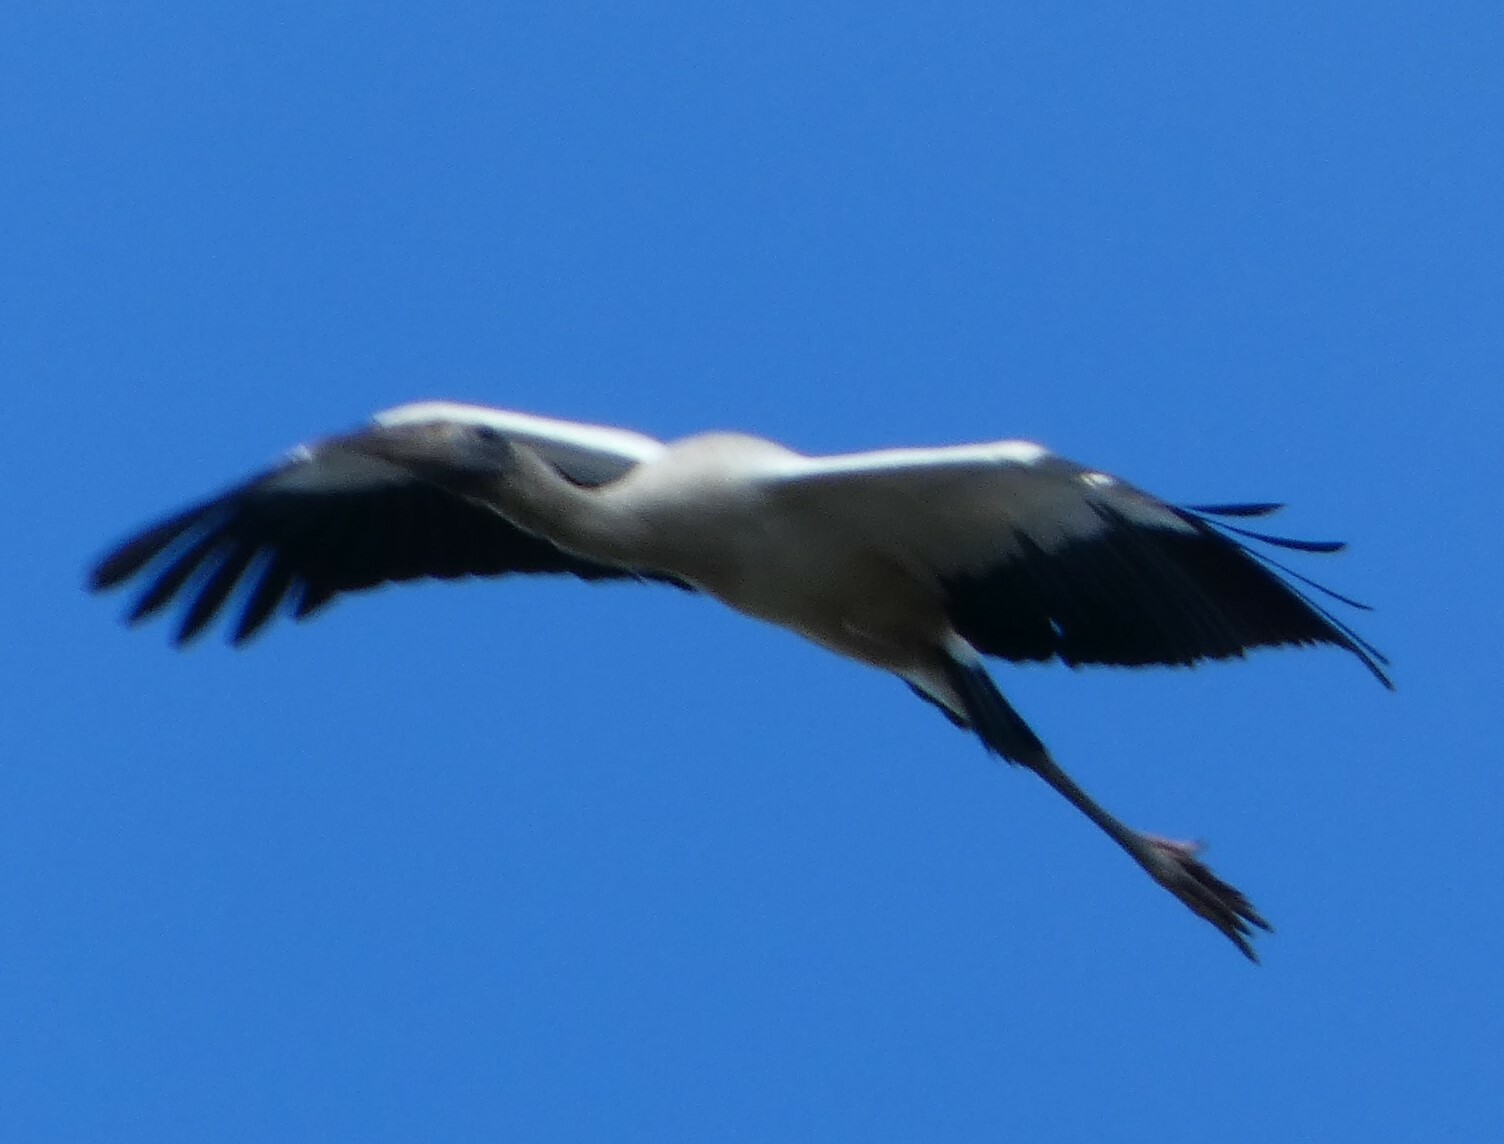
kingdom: Animalia
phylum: Chordata
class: Aves
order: Ciconiiformes
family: Ciconiidae
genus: Mycteria
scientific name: Mycteria americana
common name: Wood stork
